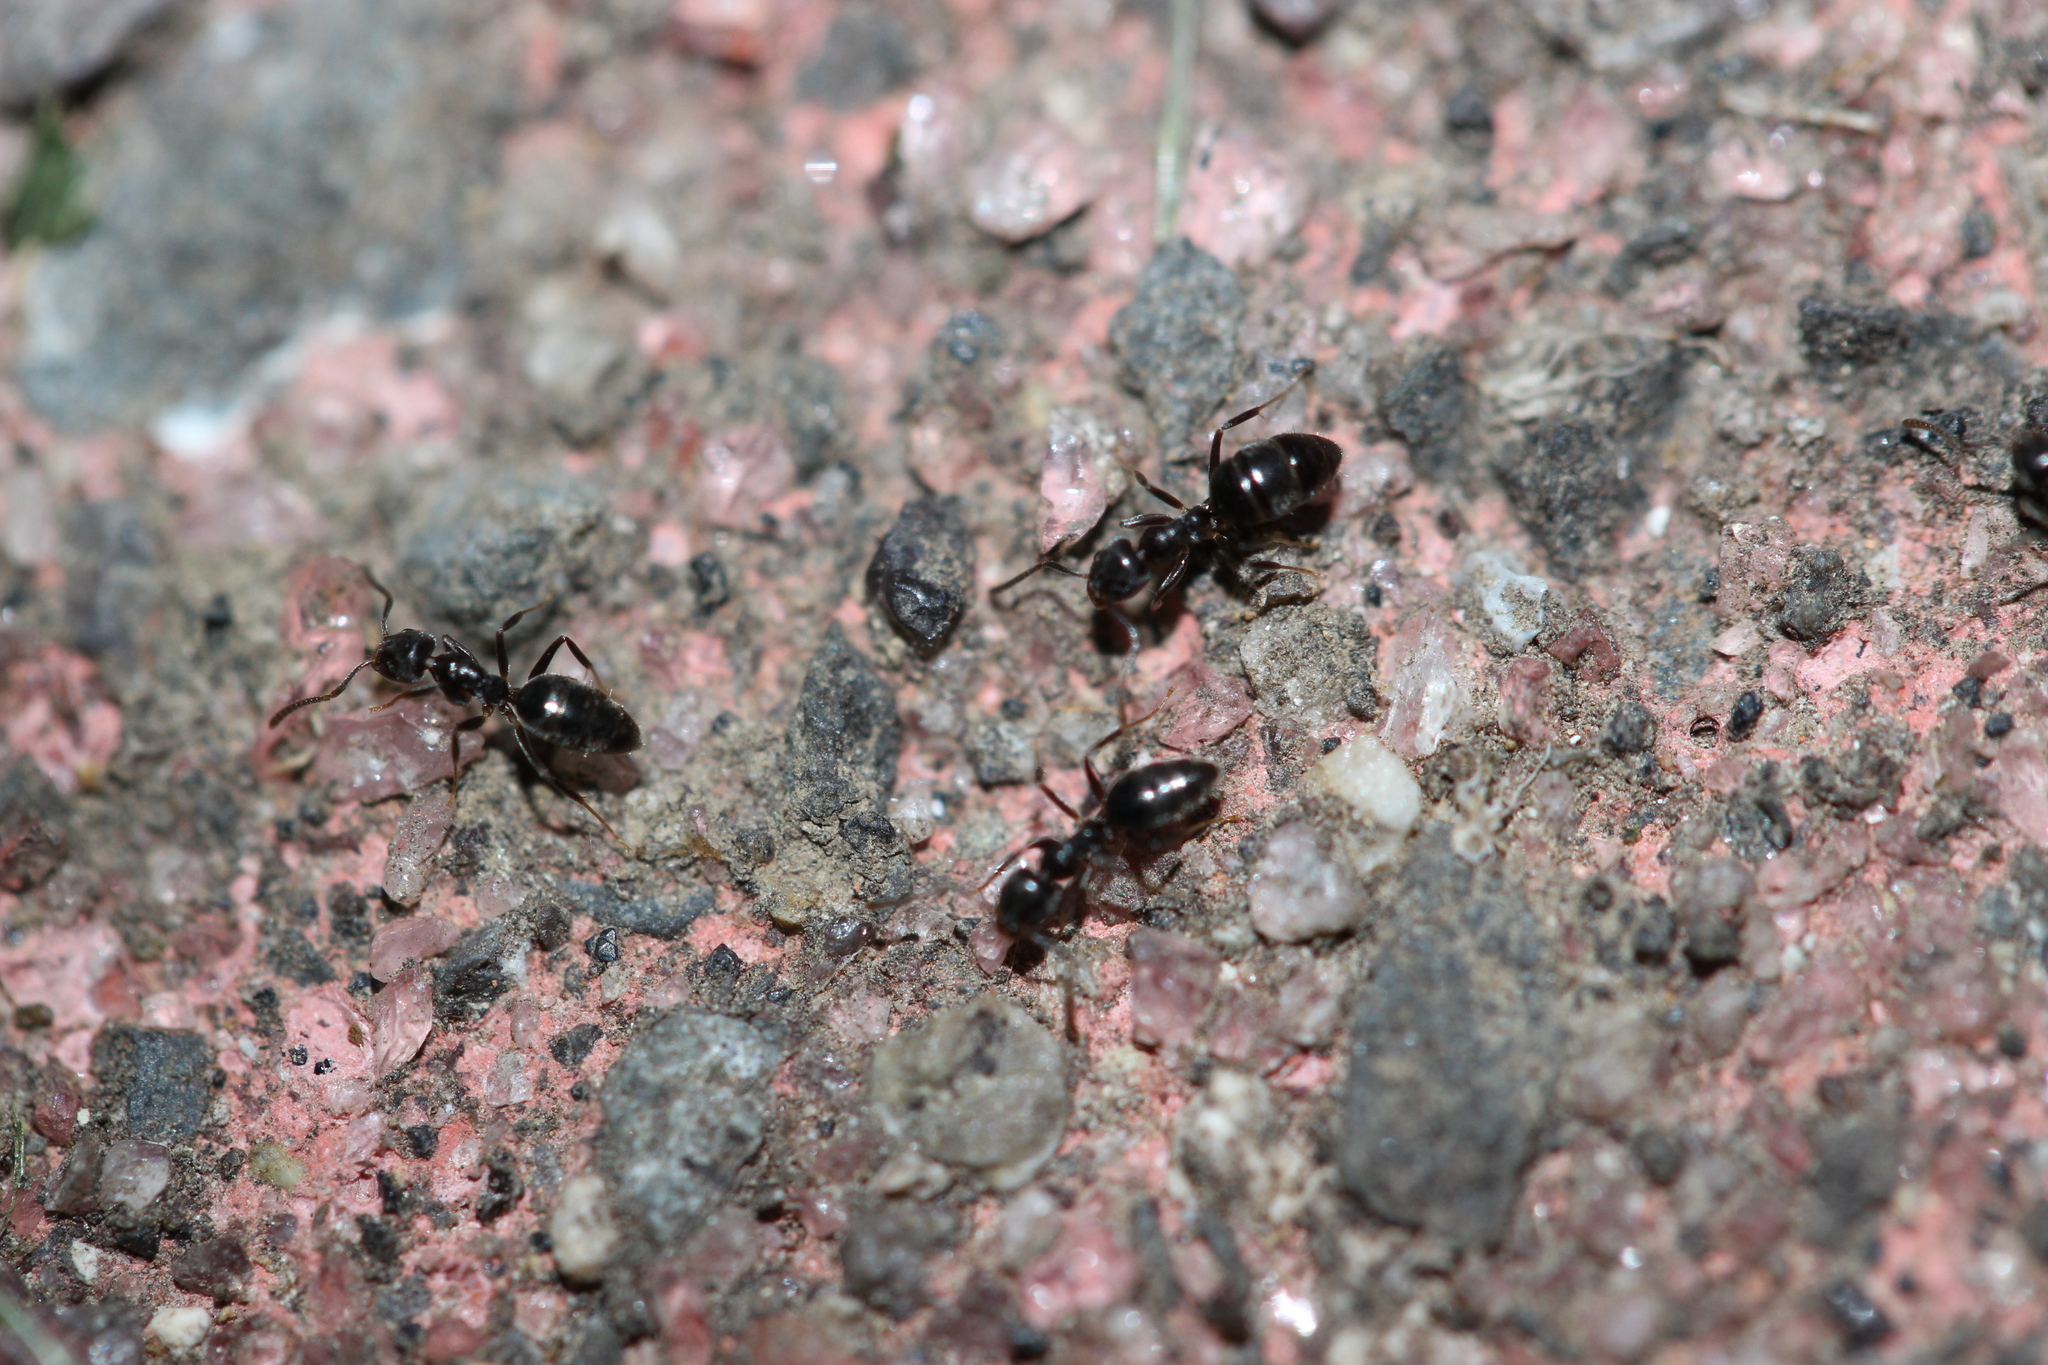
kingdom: Animalia
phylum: Arthropoda
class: Insecta
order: Hymenoptera
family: Formicidae
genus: Technomyrmex
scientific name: Technomyrmex jocosus
